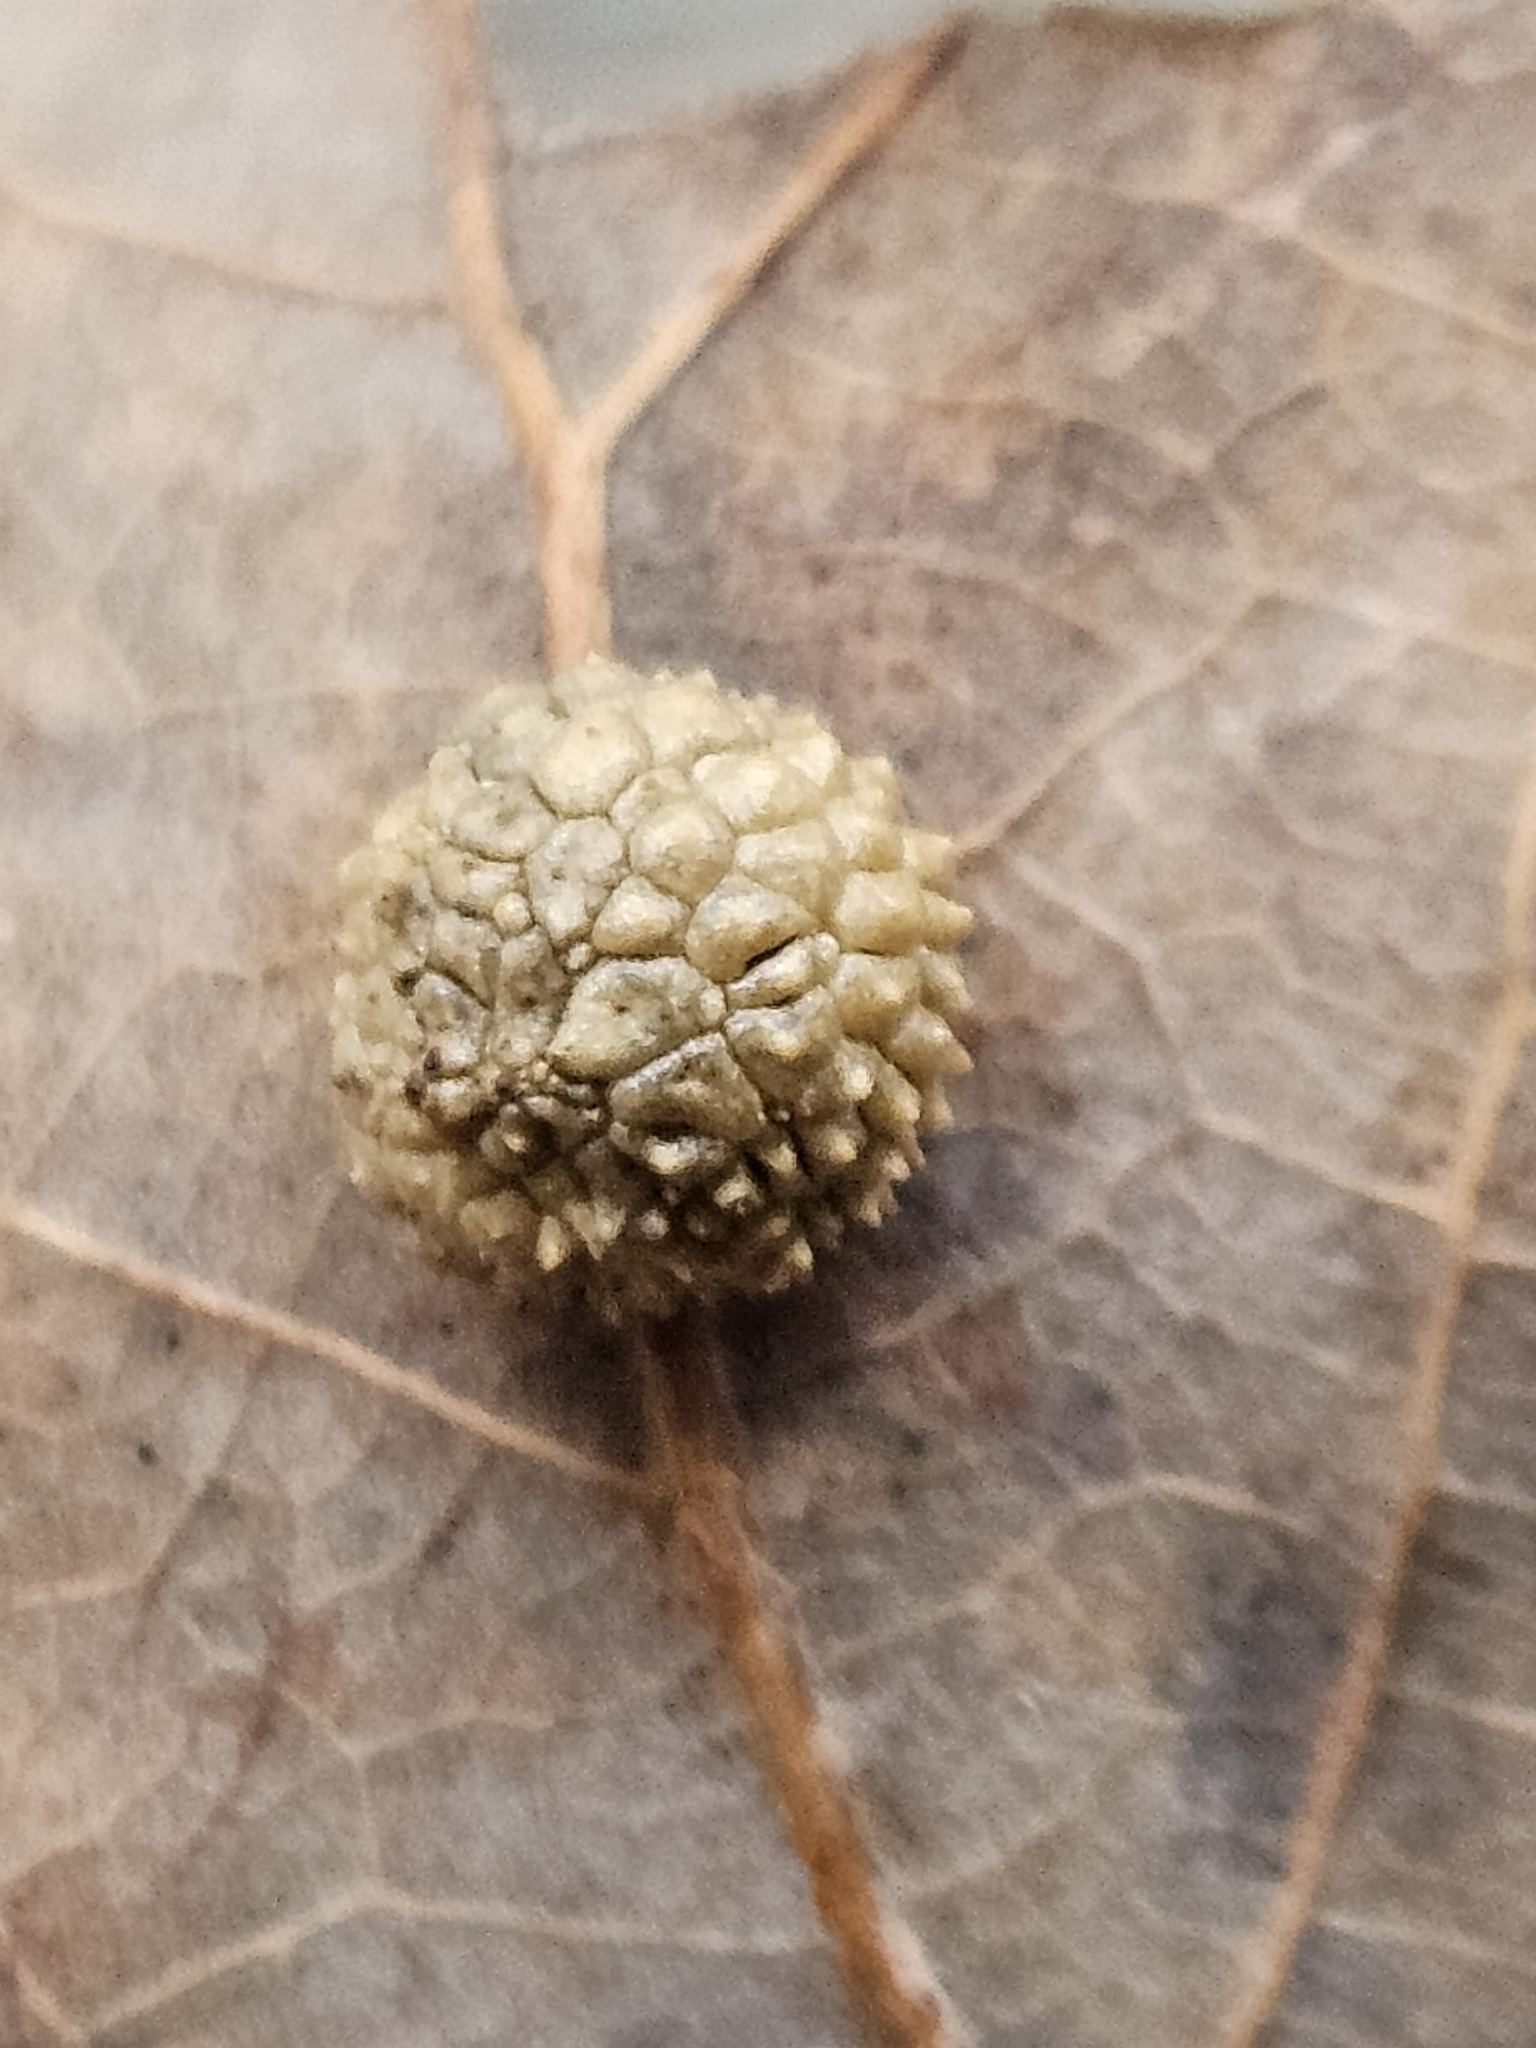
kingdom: Animalia
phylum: Arthropoda
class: Insecta
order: Hymenoptera
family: Cynipidae
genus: Acraspis
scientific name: Acraspis
